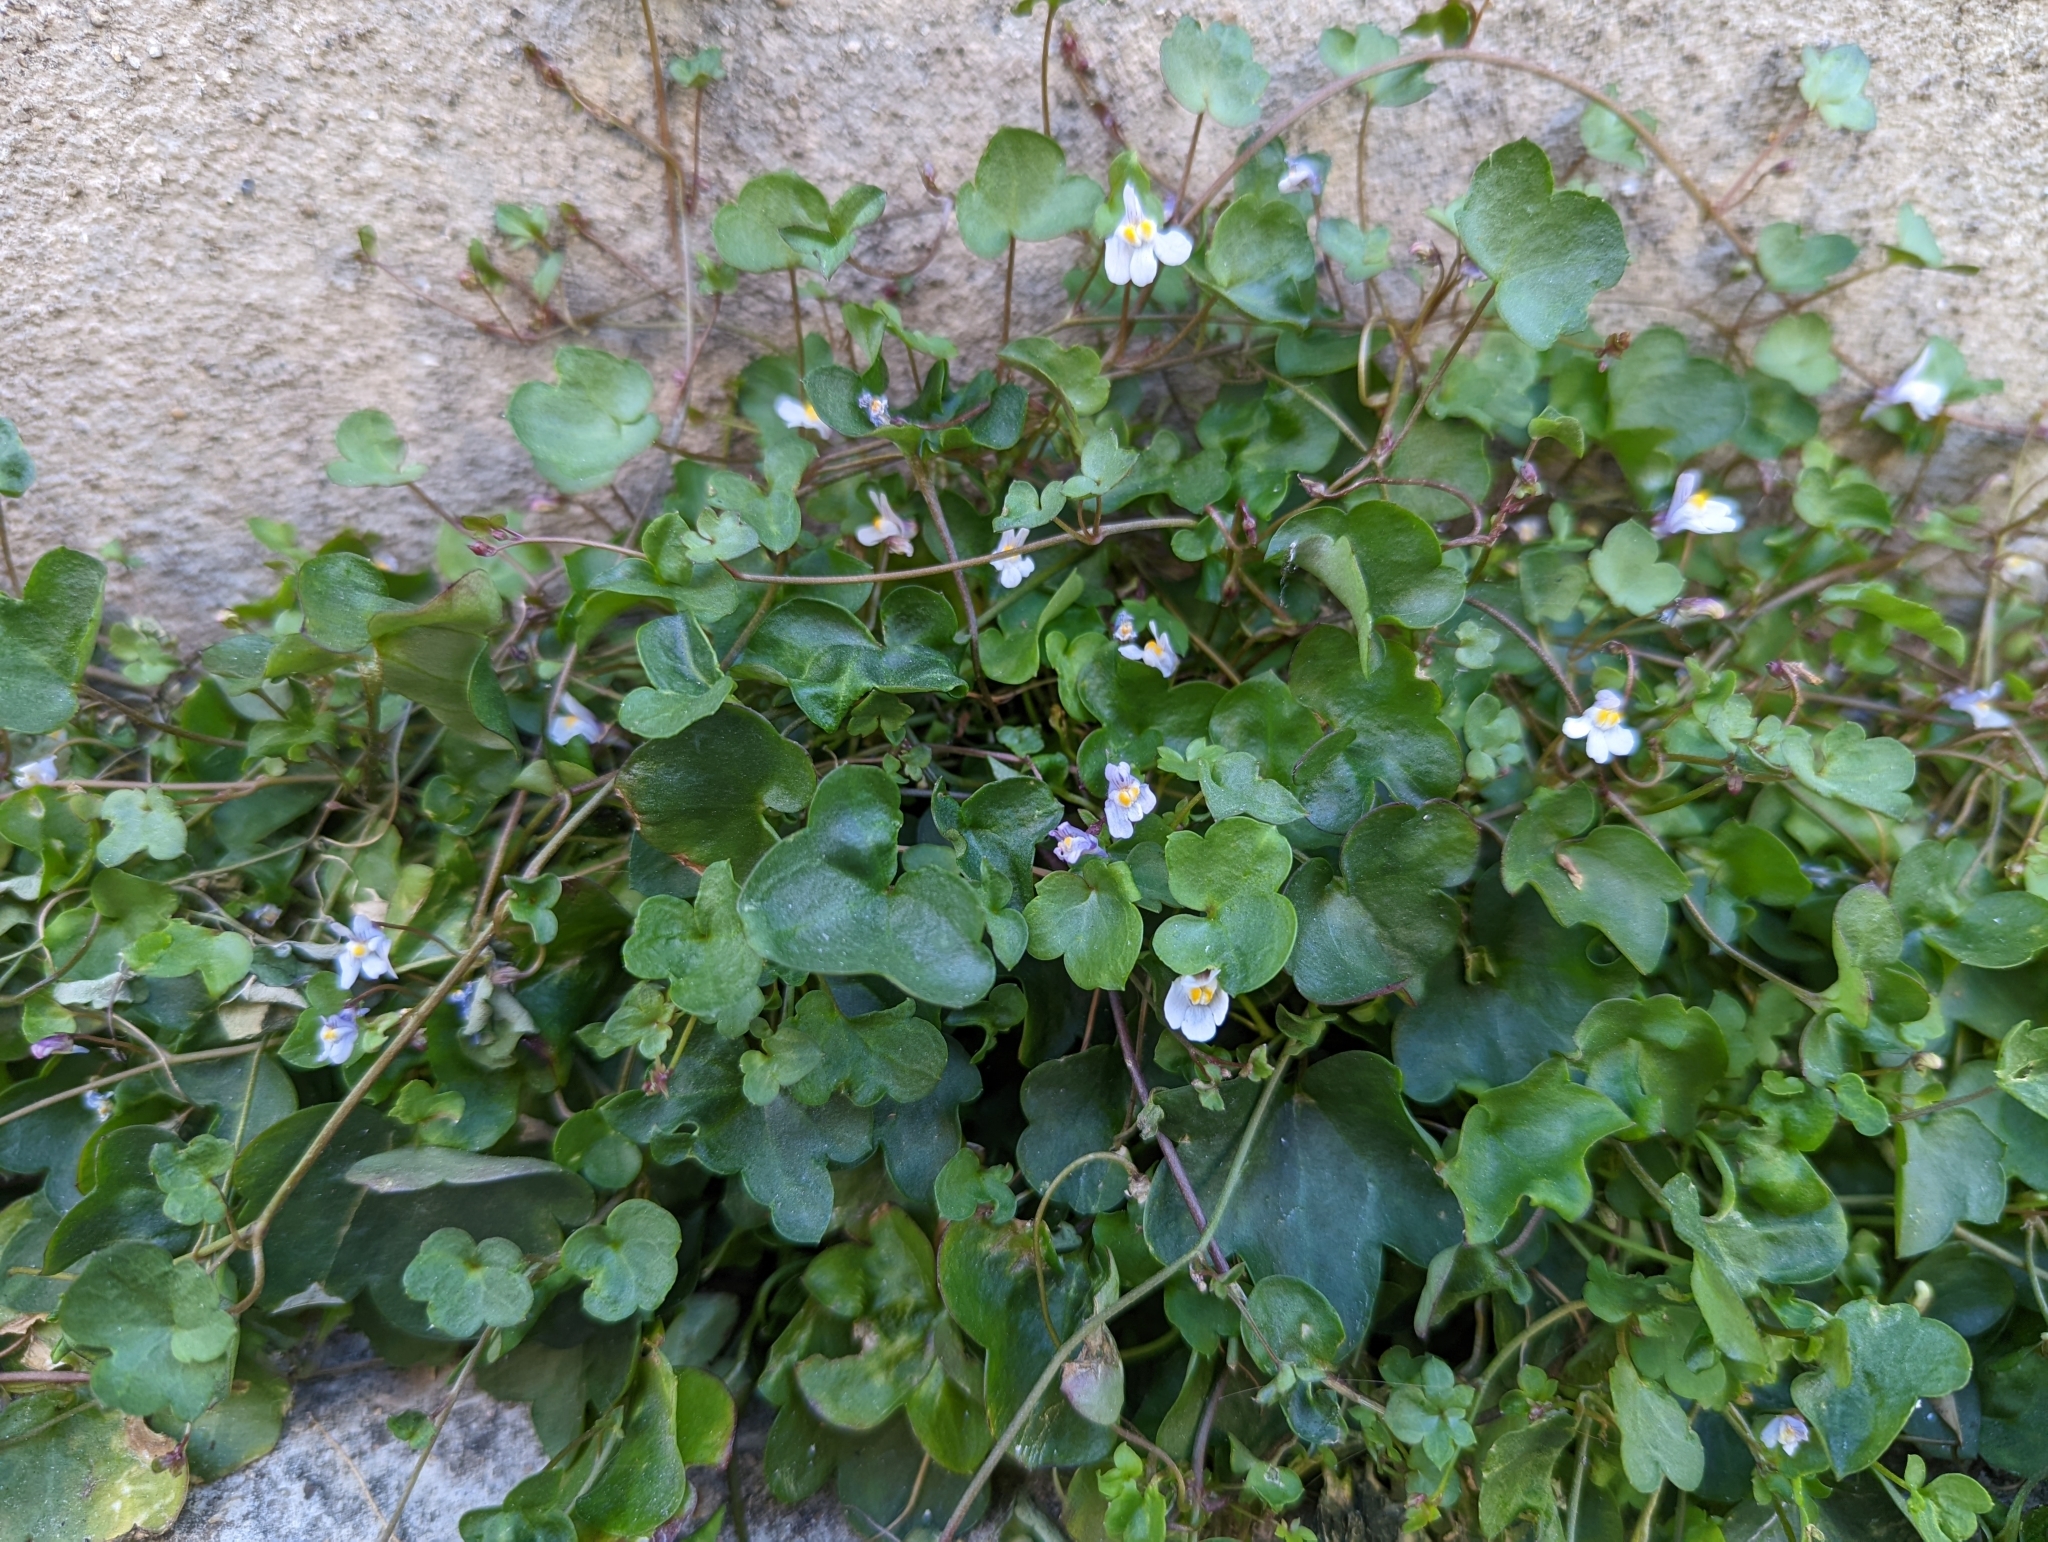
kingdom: Plantae
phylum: Tracheophyta
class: Magnoliopsida
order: Lamiales
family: Plantaginaceae
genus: Cymbalaria
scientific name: Cymbalaria muralis
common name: Ivy-leaved toadflax
